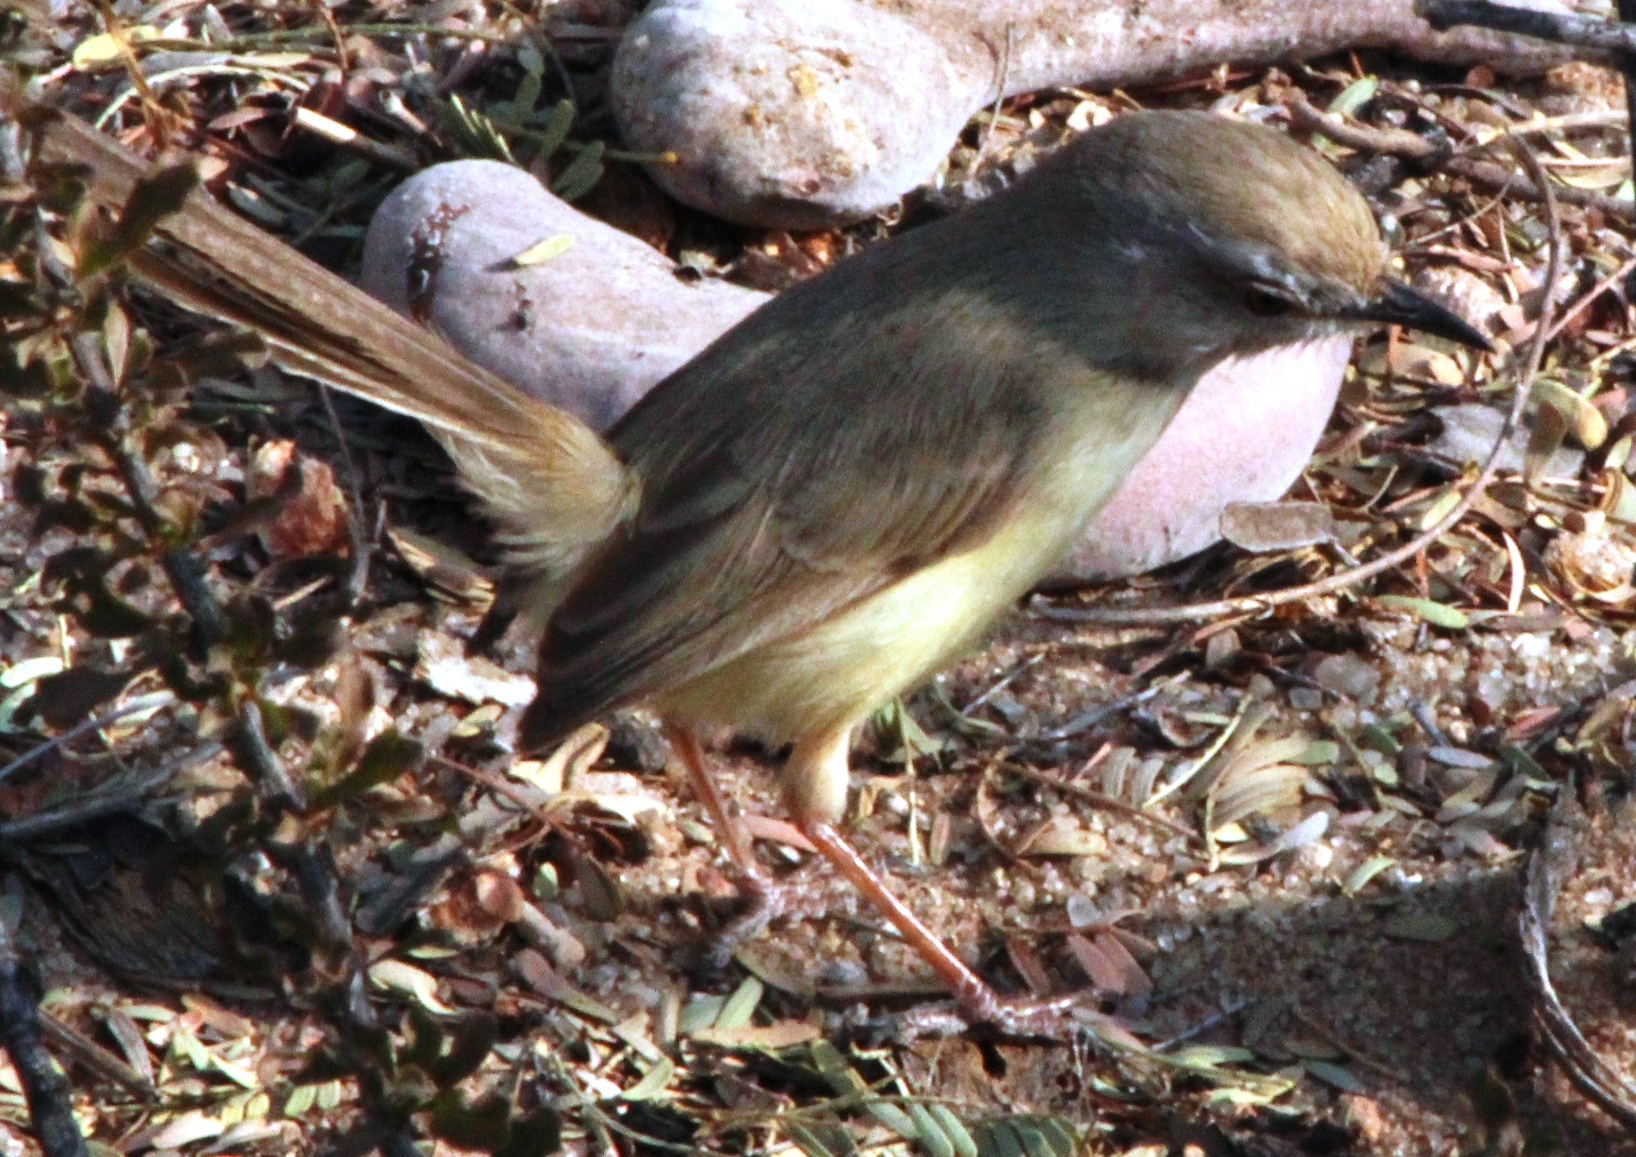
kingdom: Animalia
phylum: Chordata
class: Aves
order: Passeriformes
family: Cisticolidae
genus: Prinia
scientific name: Prinia flavicans
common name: Black-chested prinia
